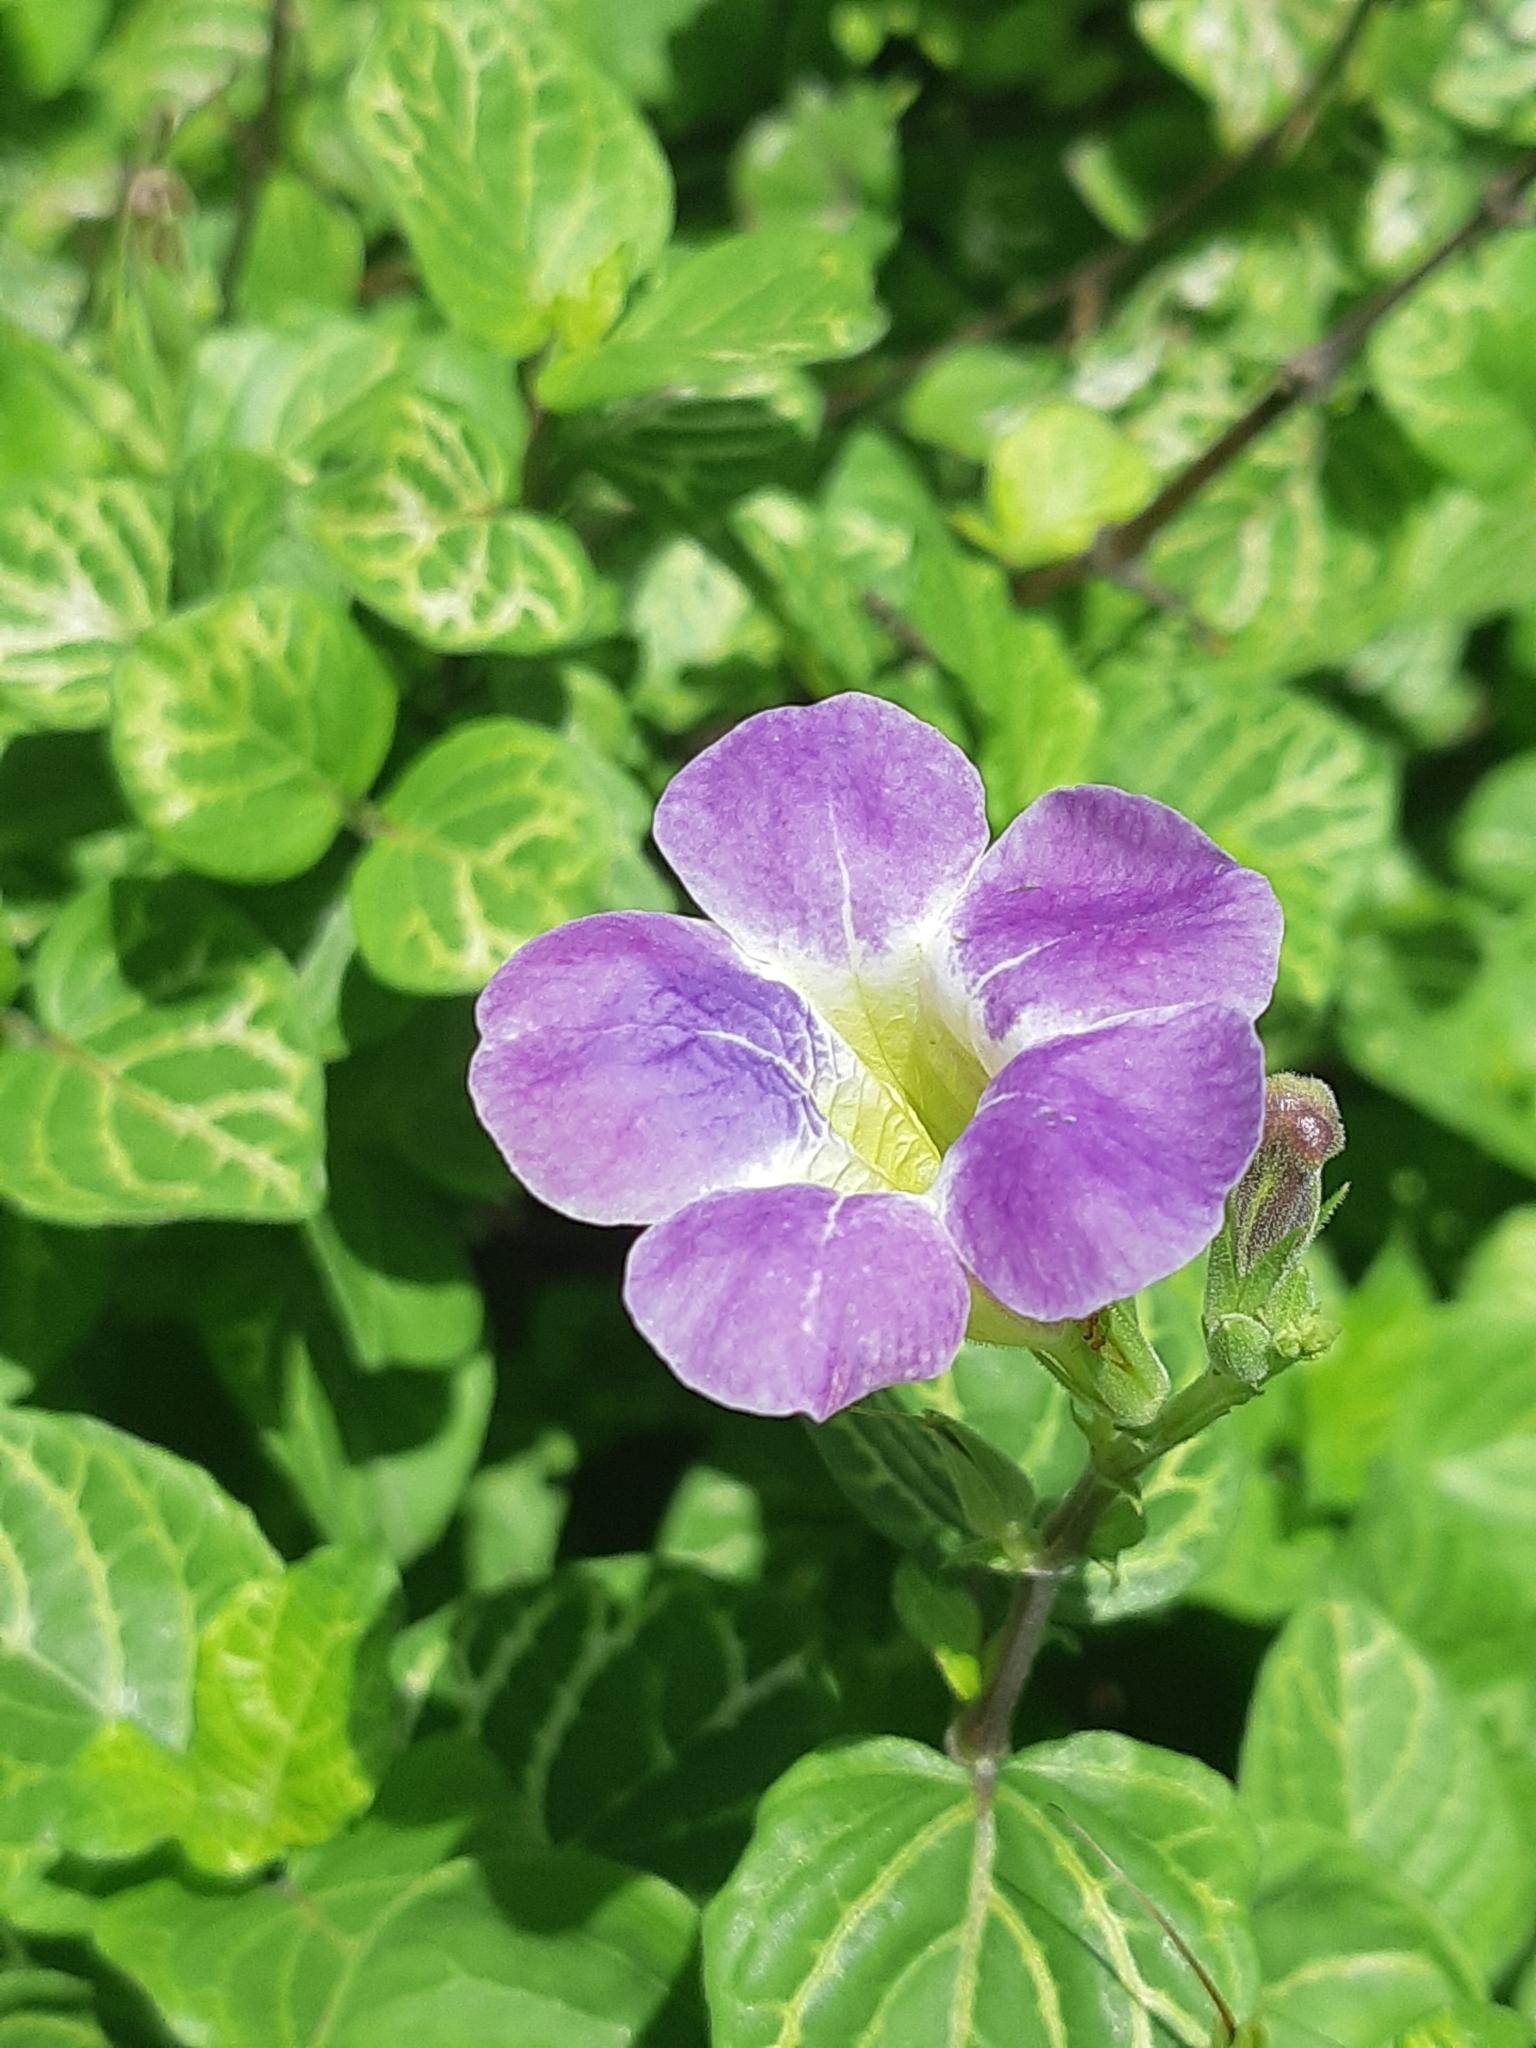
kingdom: Plantae
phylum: Tracheophyta
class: Magnoliopsida
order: Lamiales
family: Acanthaceae
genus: Asystasia
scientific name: Asystasia gangetica
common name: Chinese violet
